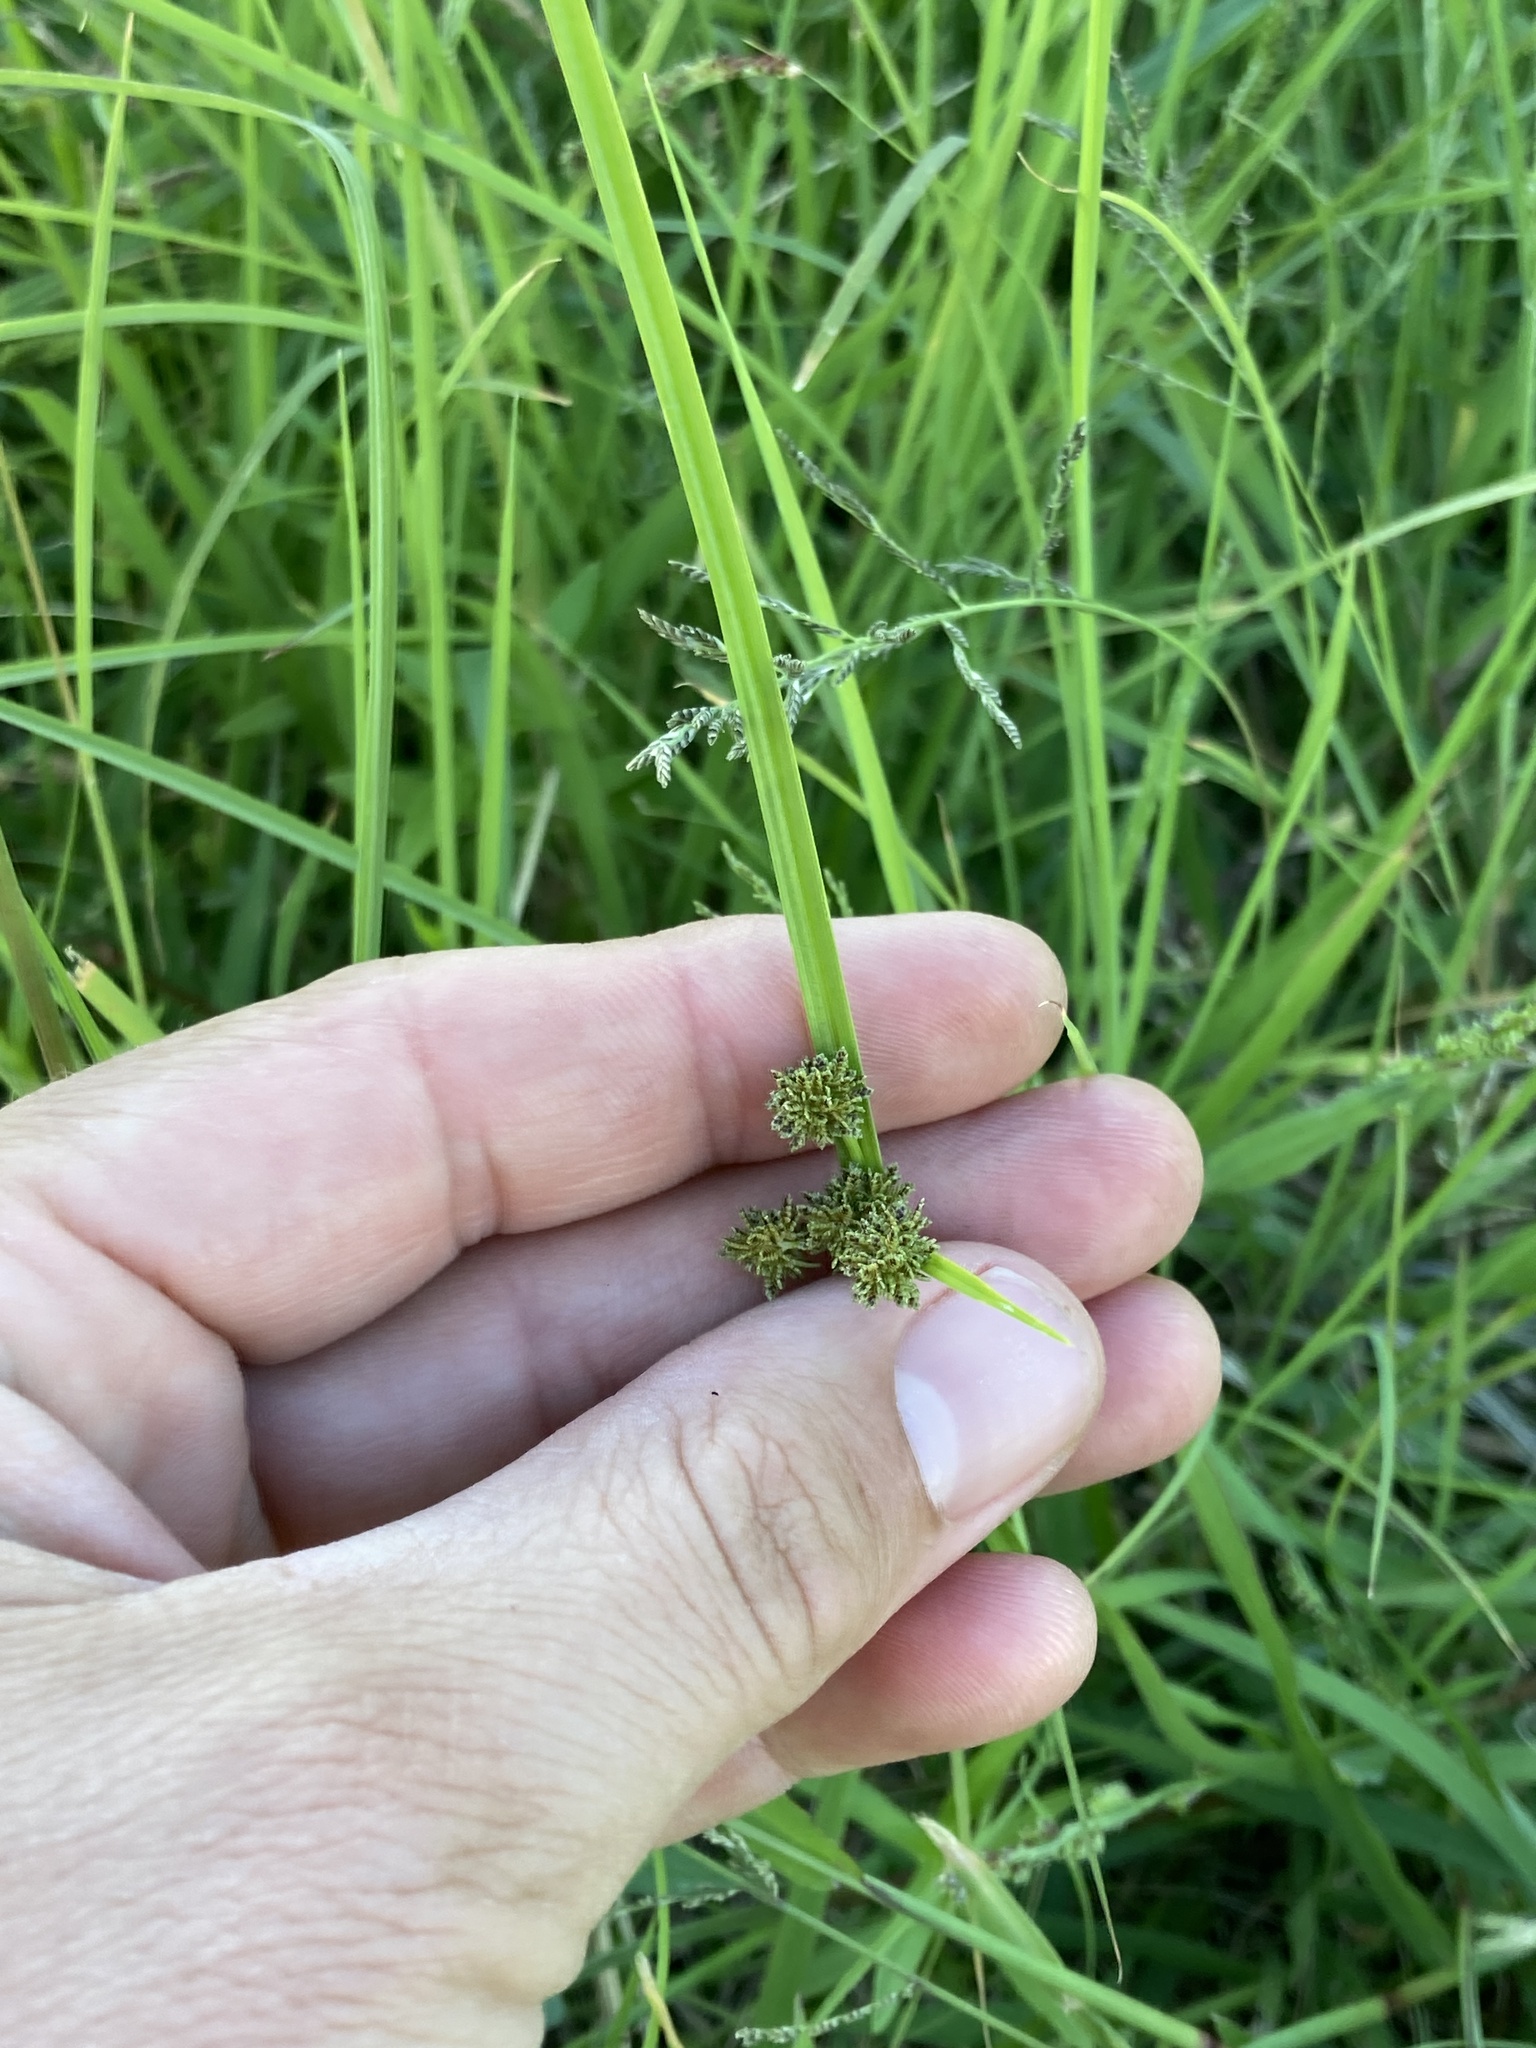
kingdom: Plantae
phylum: Tracheophyta
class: Liliopsida
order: Poales
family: Cyperaceae
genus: Cyperus
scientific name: Cyperus difformis
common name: Variable flatsedge
